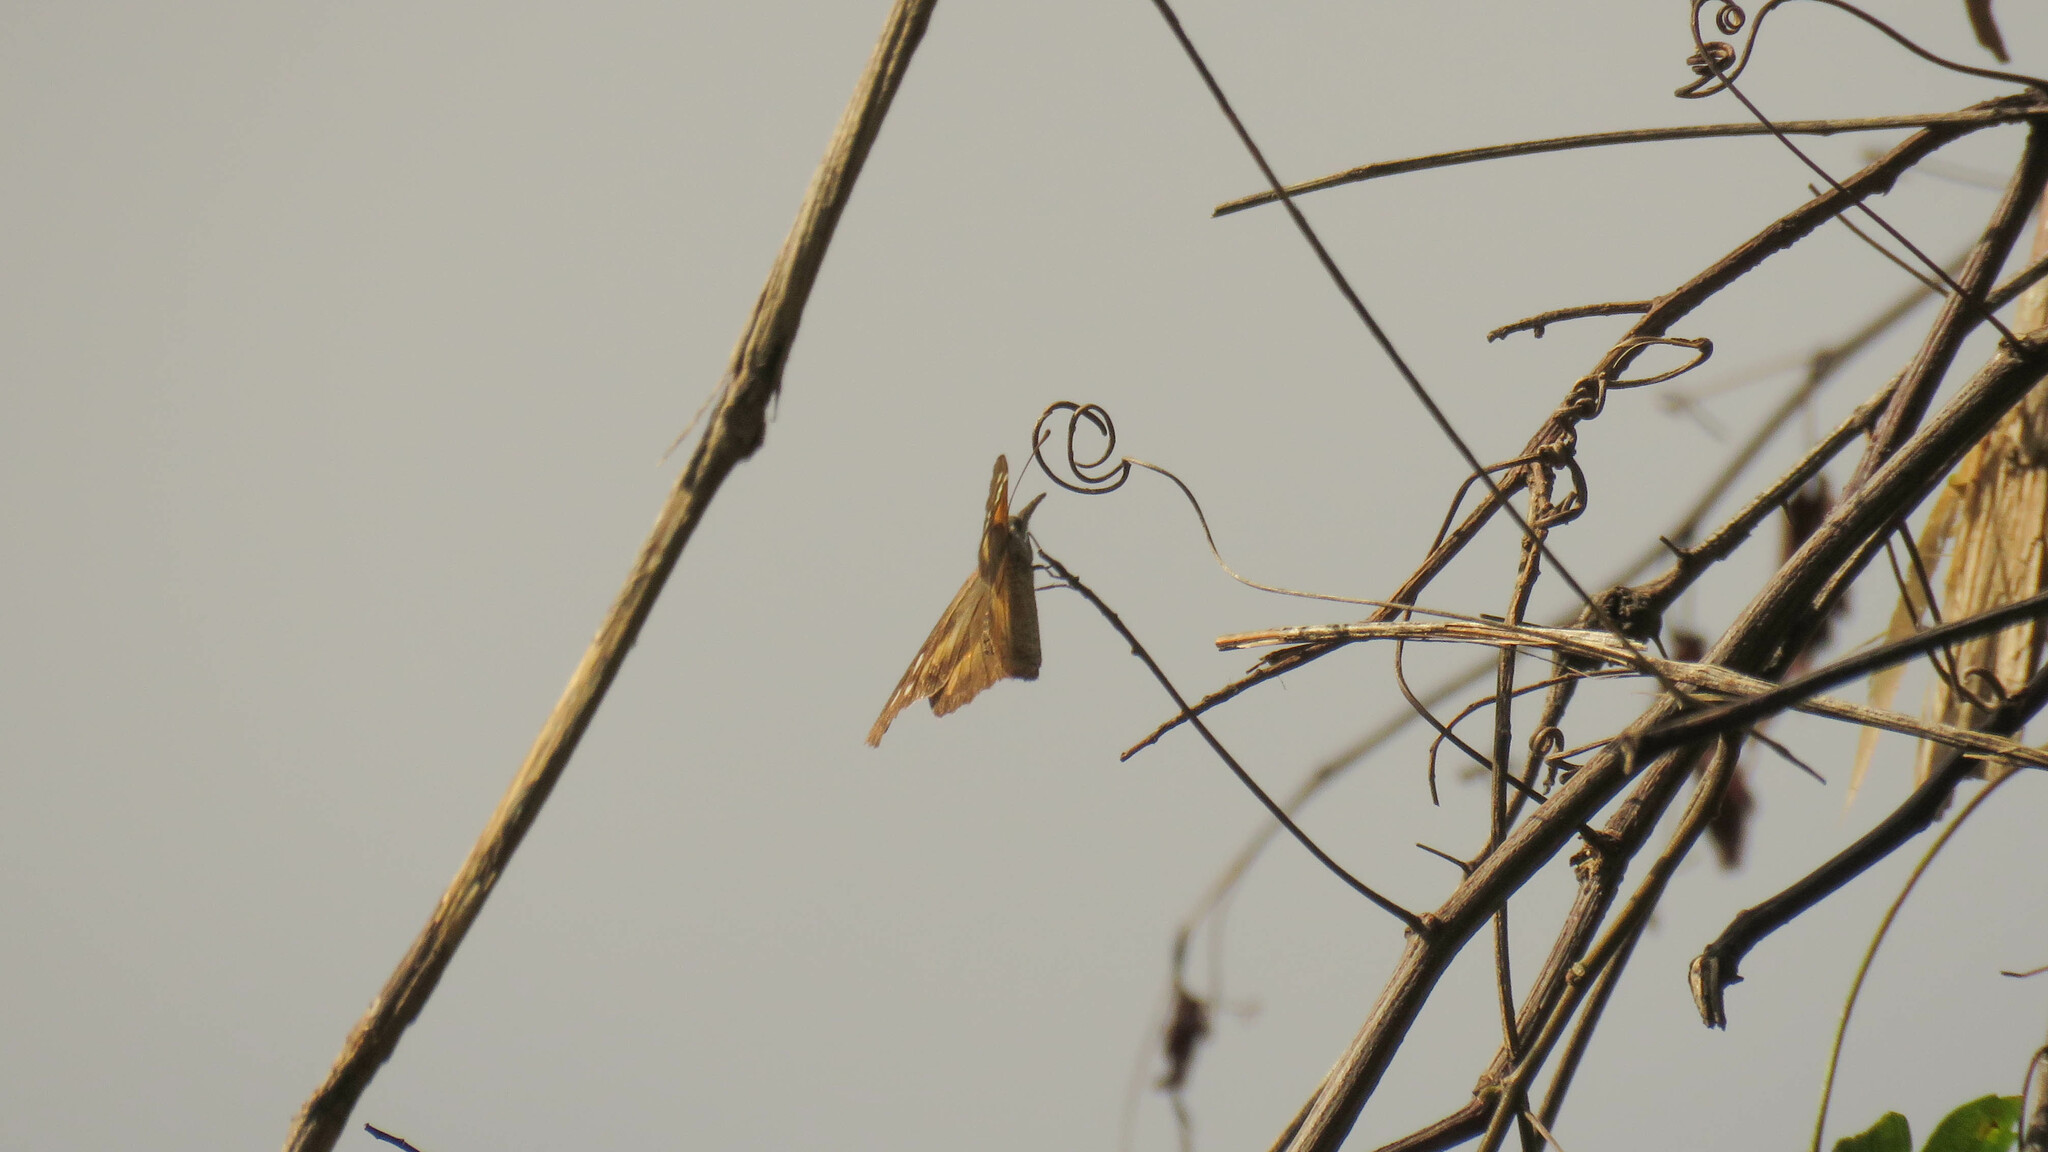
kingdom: Animalia
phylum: Arthropoda
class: Insecta
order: Lepidoptera
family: Nymphalidae
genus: Libytheana
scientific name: Libytheana carinenta
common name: American snout
